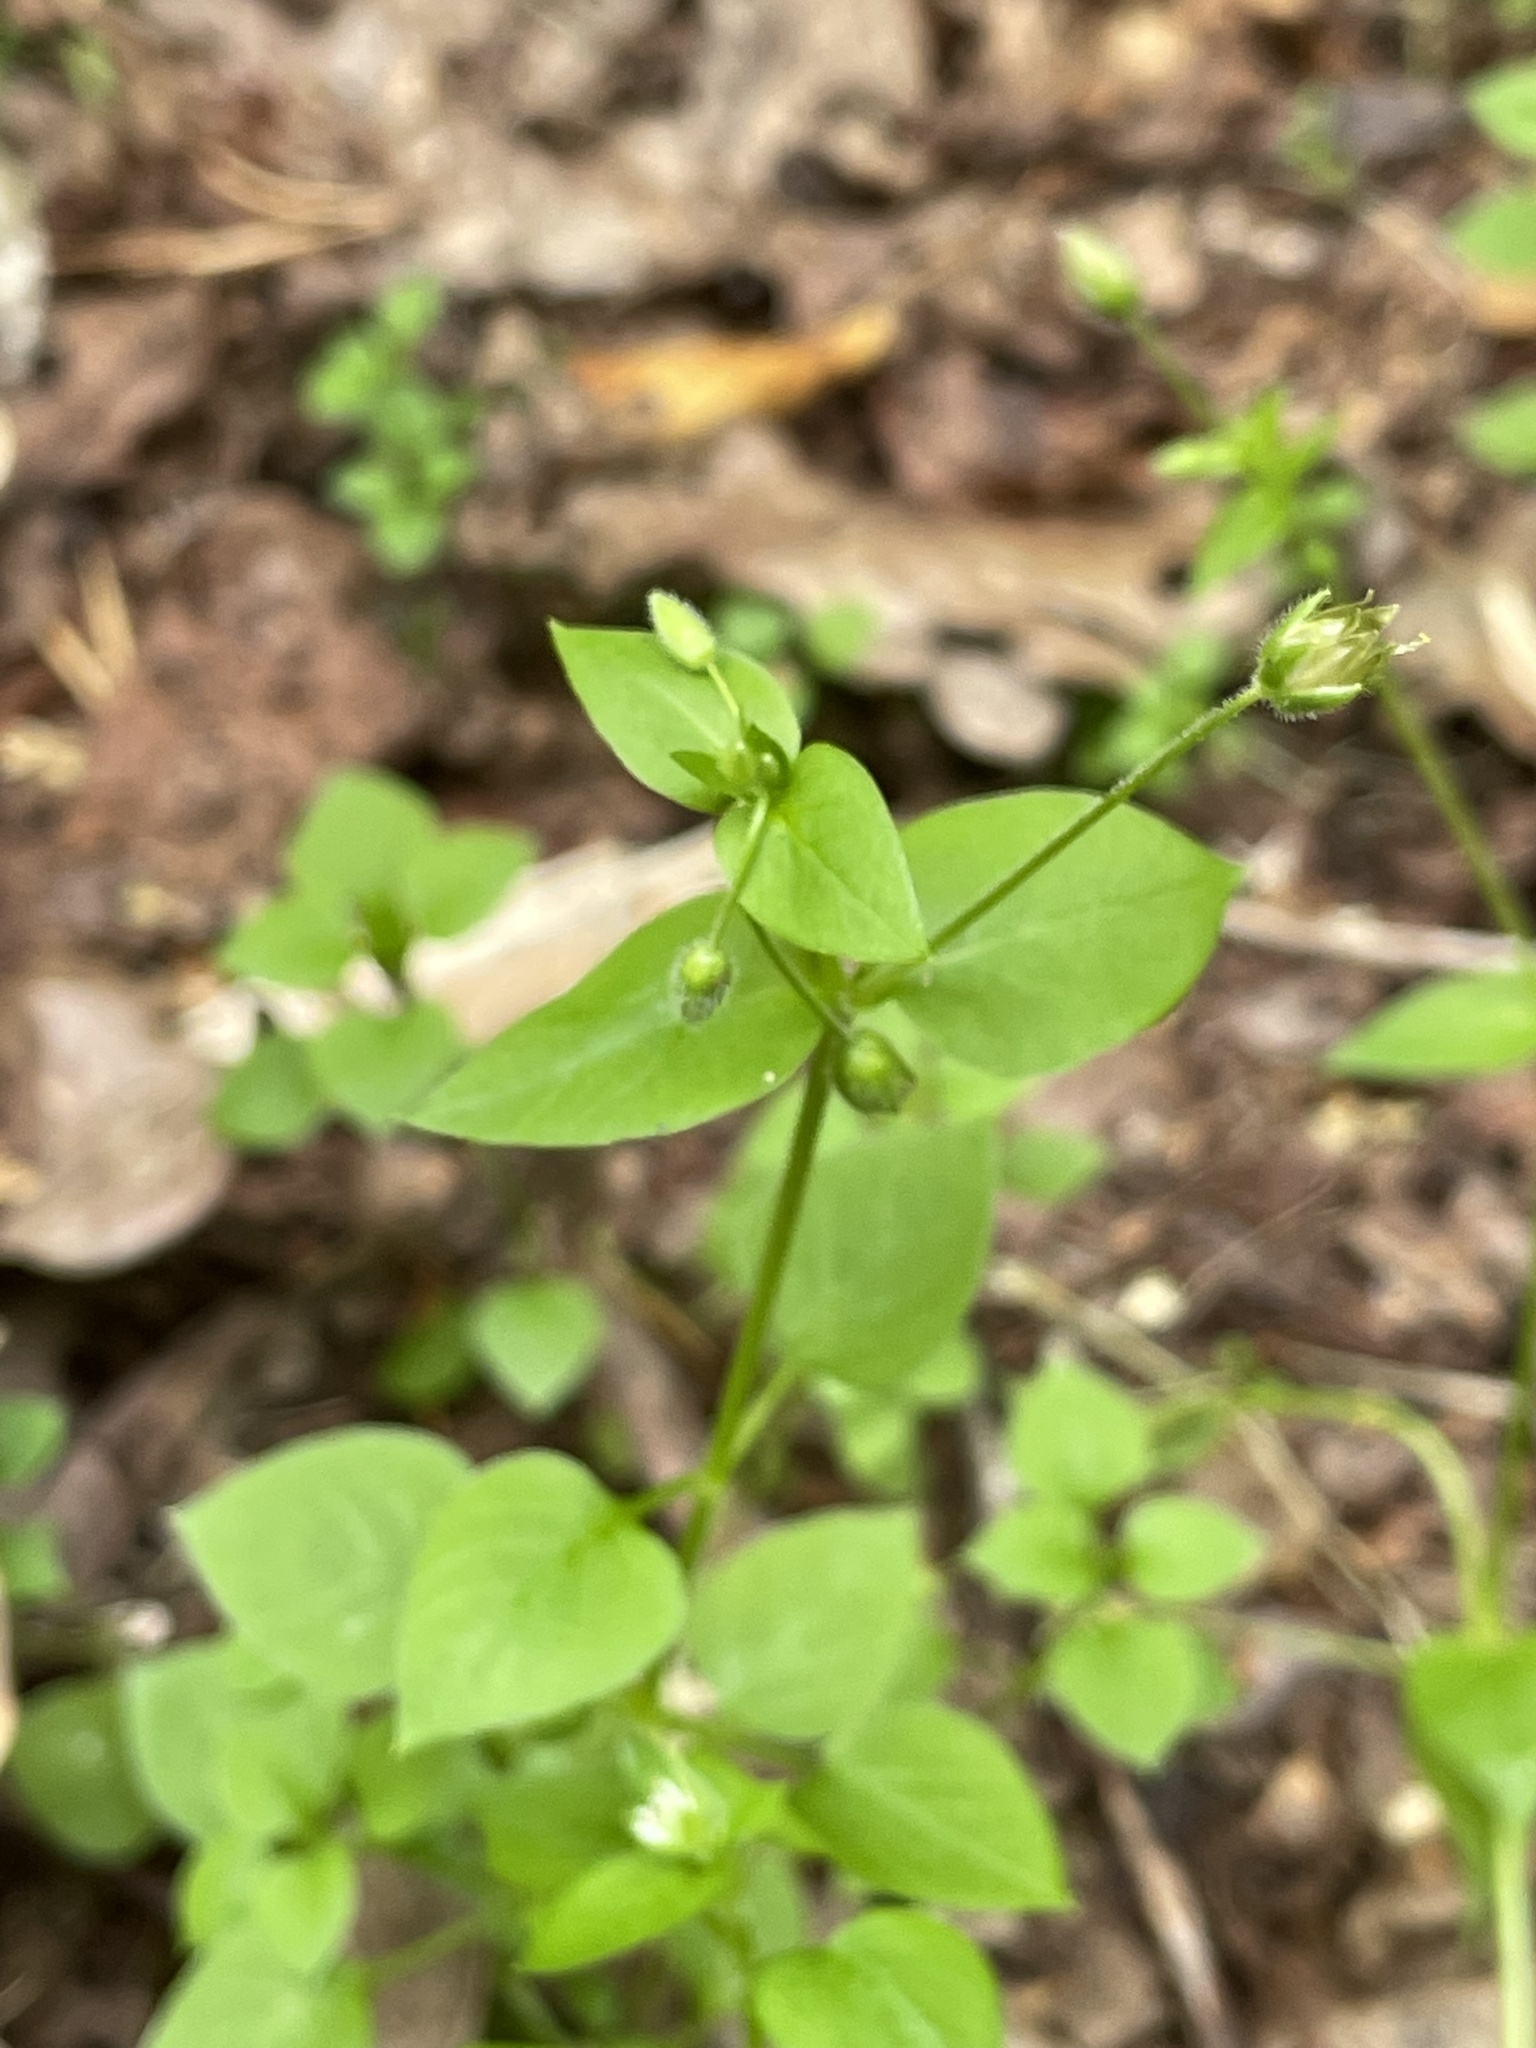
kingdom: Plantae
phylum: Tracheophyta
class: Magnoliopsida
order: Caryophyllales
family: Caryophyllaceae
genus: Stellaria
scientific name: Stellaria media
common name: Common chickweed
